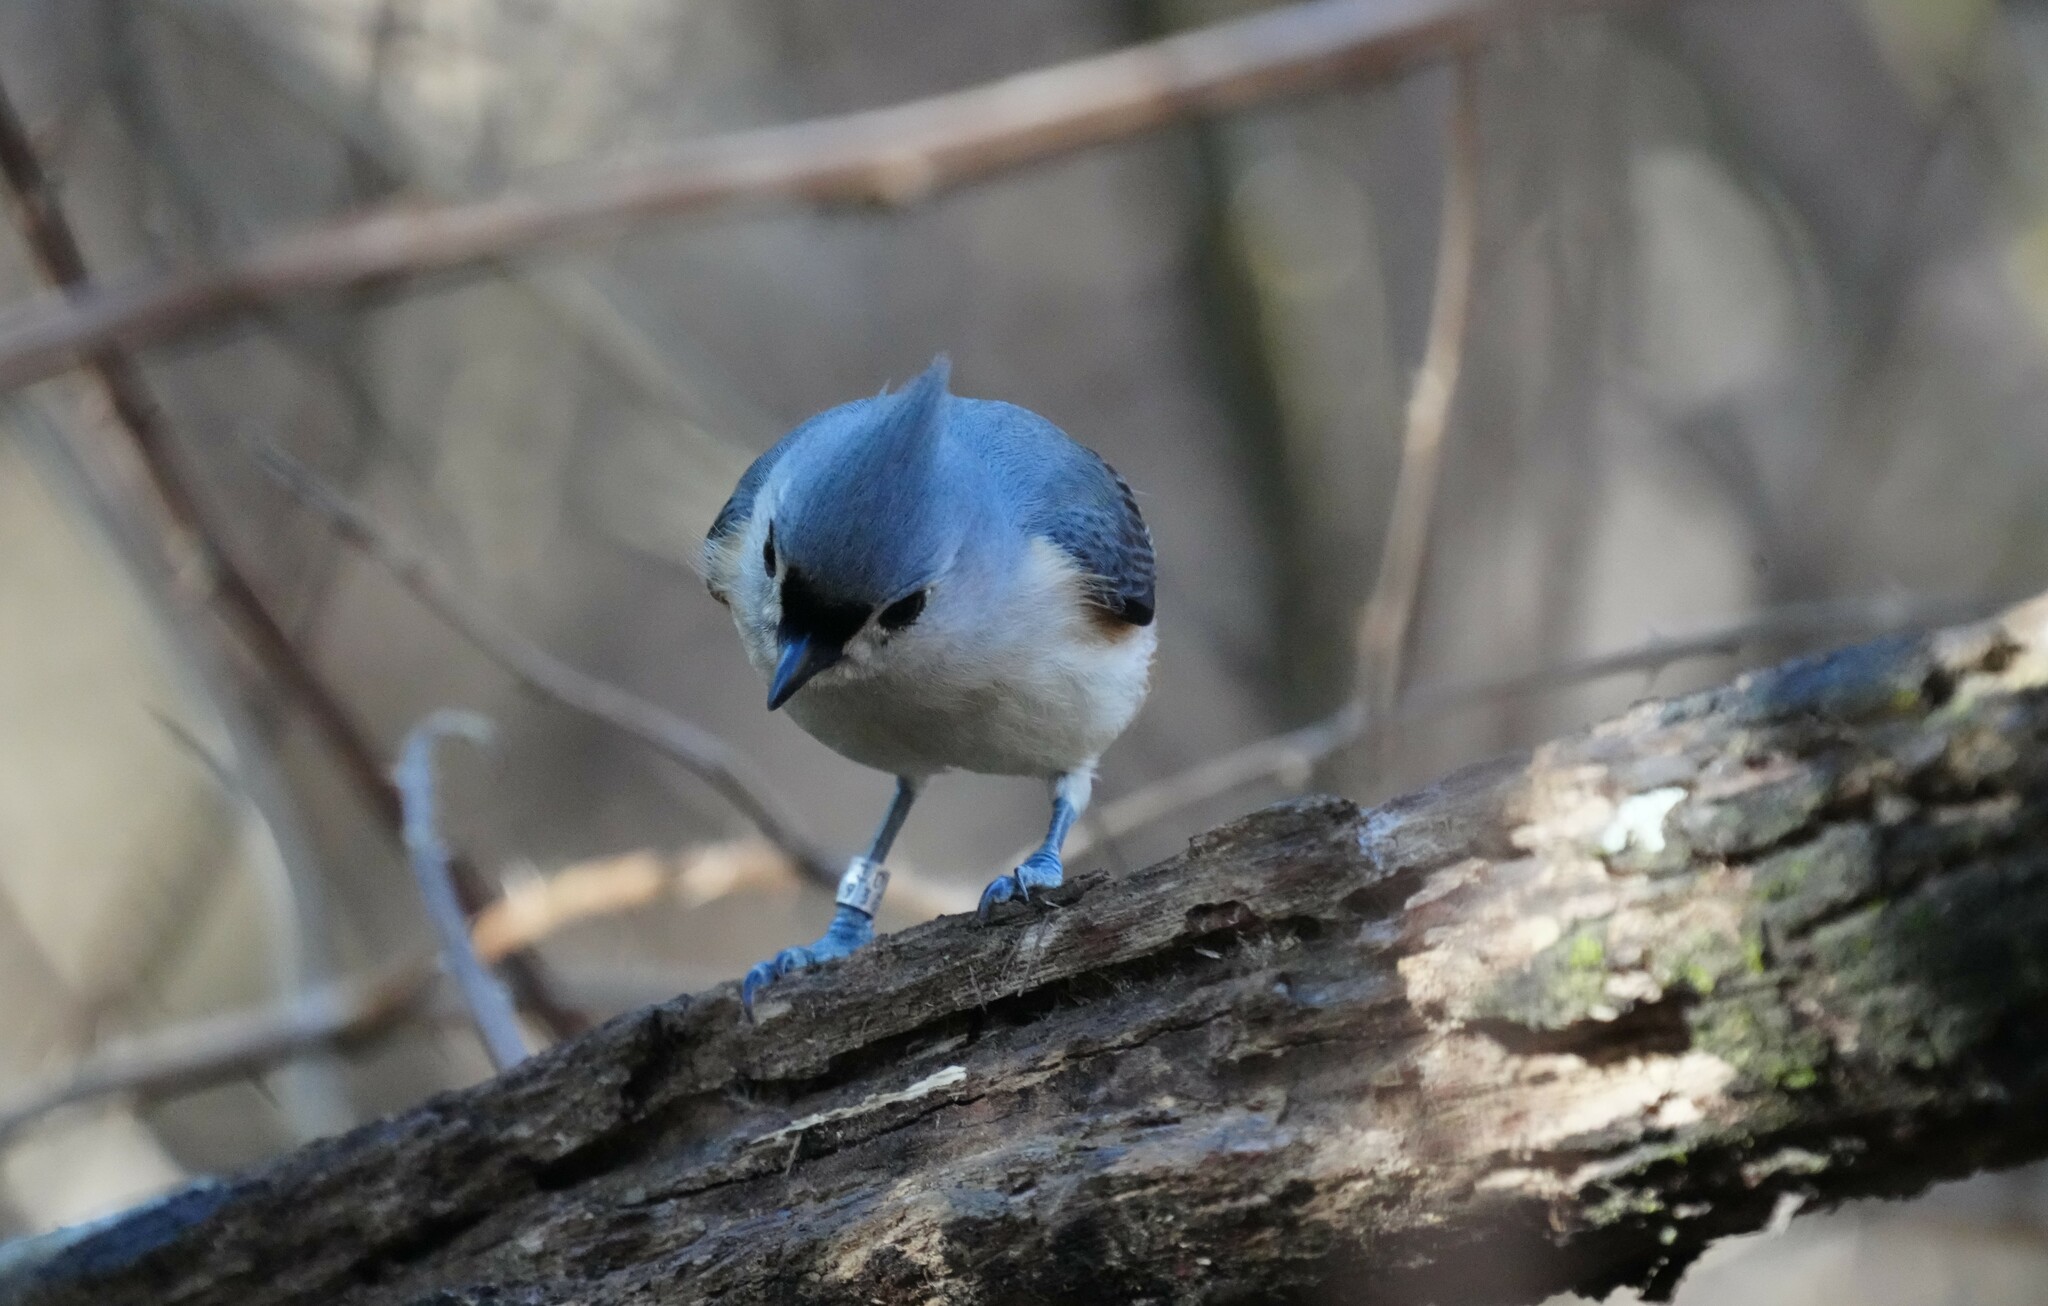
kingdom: Animalia
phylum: Chordata
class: Aves
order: Passeriformes
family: Paridae
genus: Baeolophus
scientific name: Baeolophus bicolor
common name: Tufted titmouse
